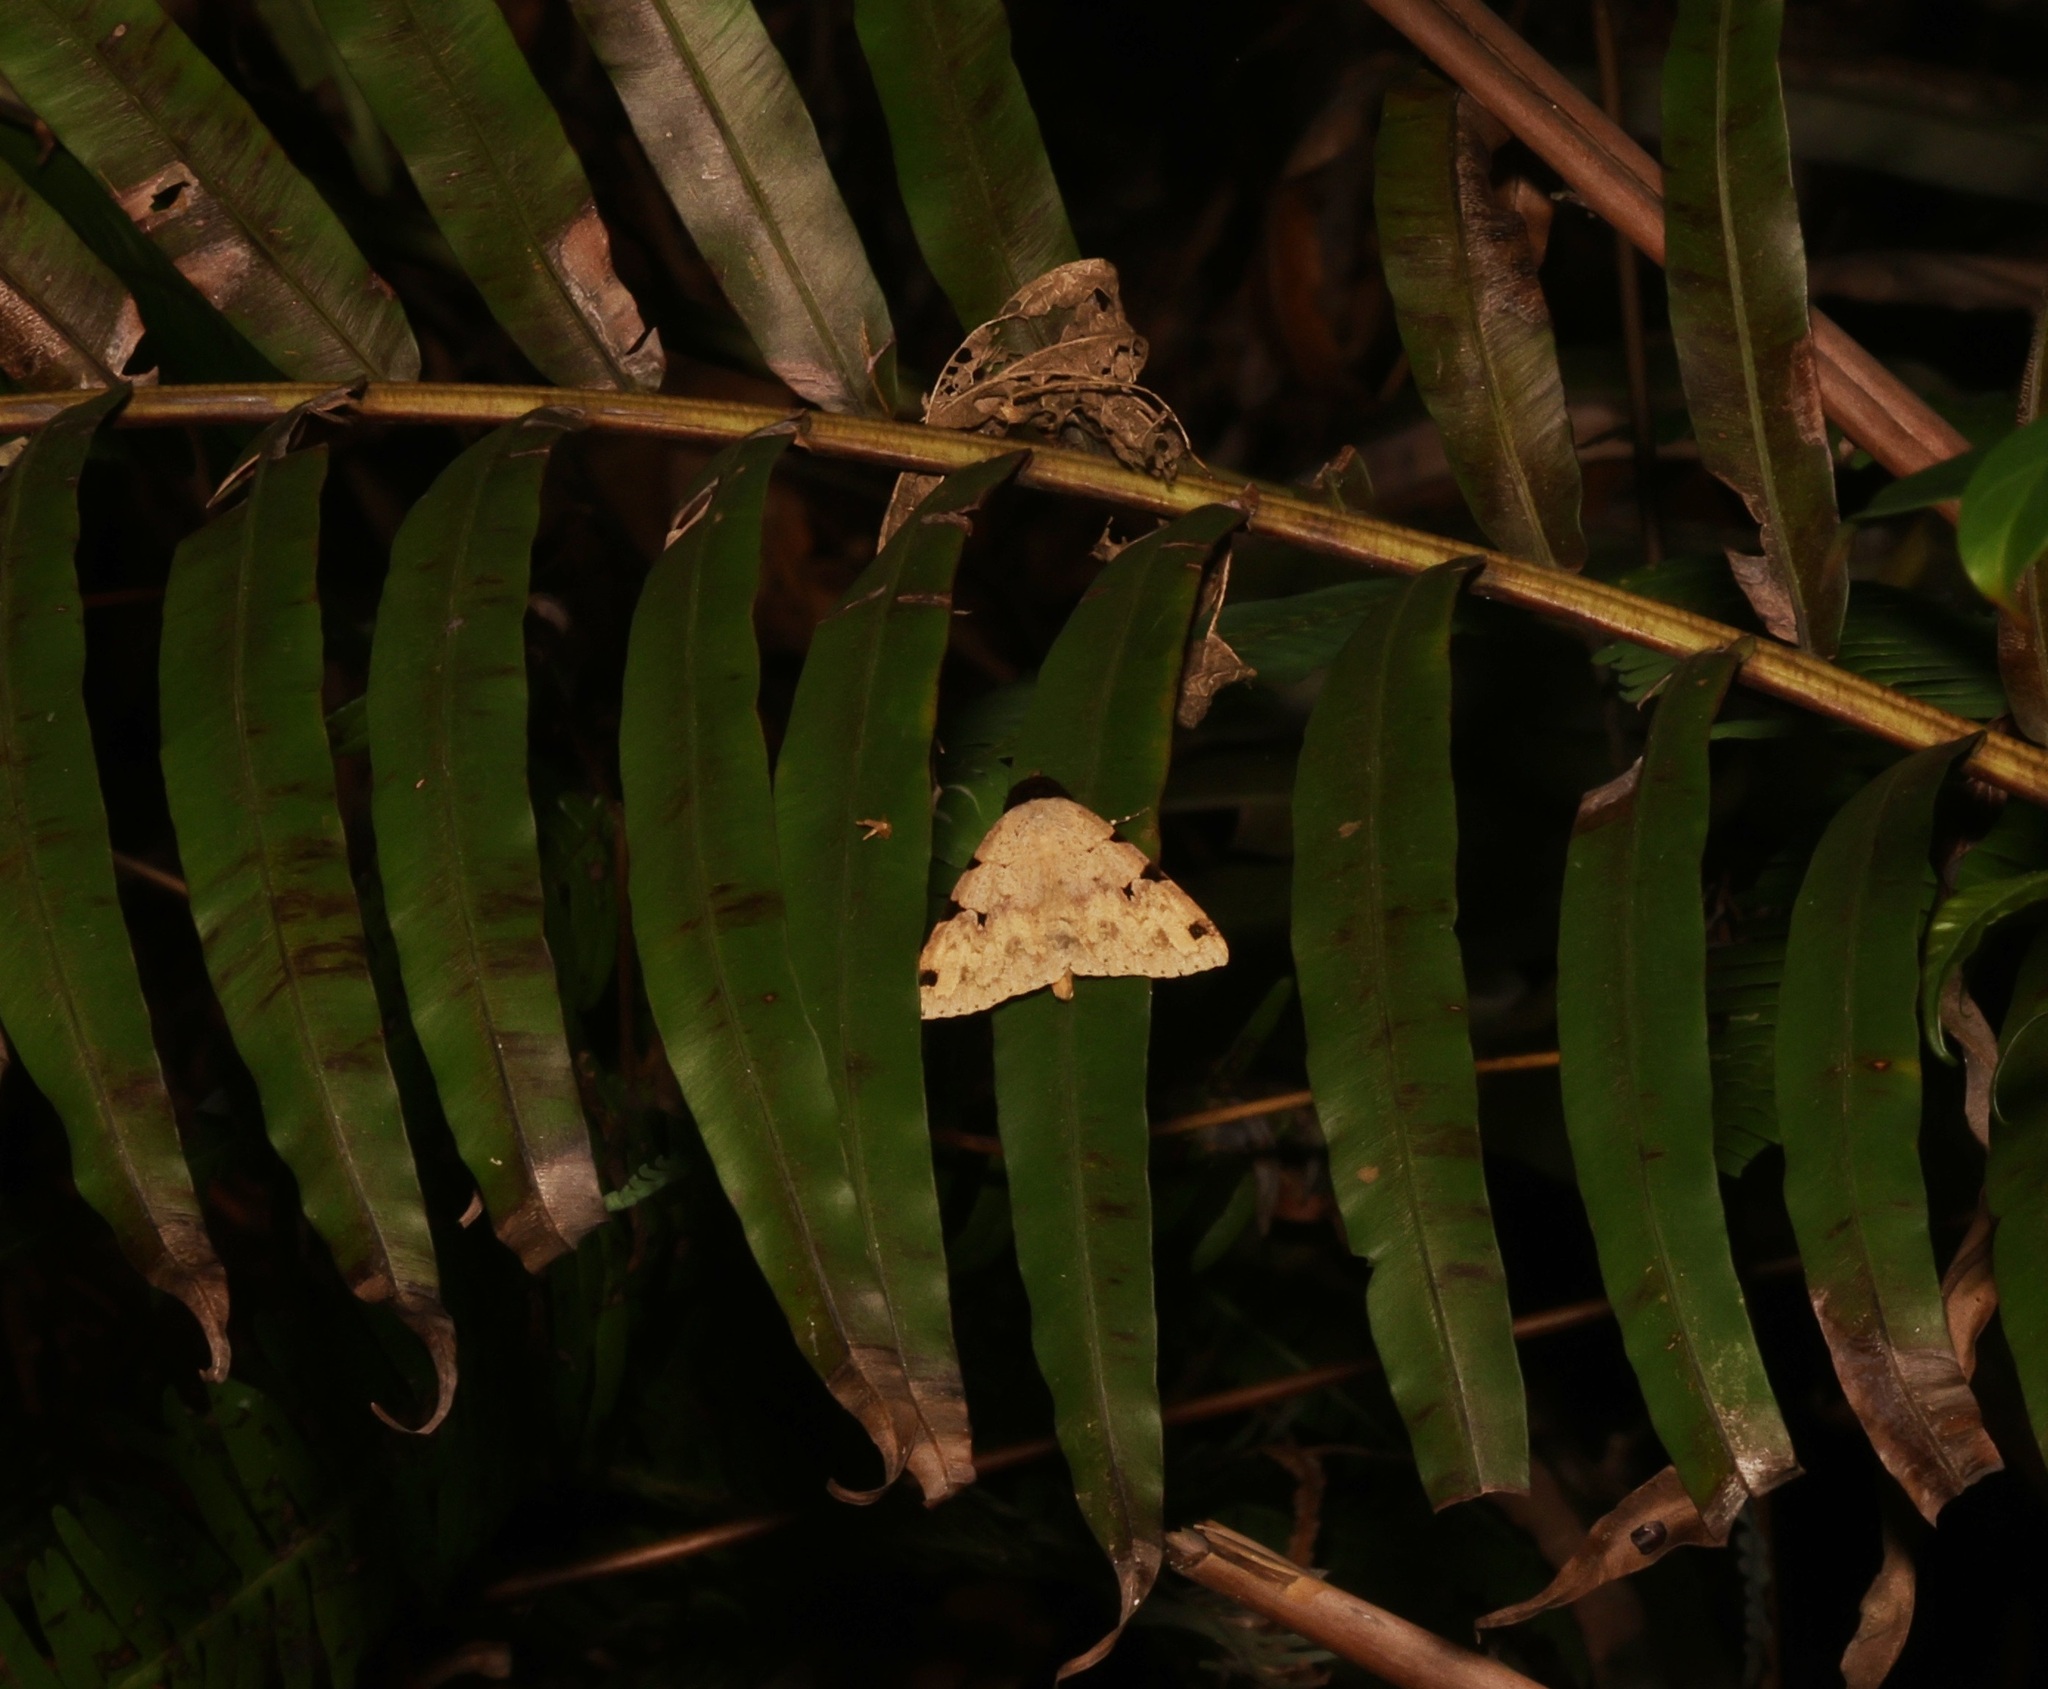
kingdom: Animalia
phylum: Arthropoda
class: Insecta
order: Lepidoptera
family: Erebidae
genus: Rema
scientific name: Rema costimacula
